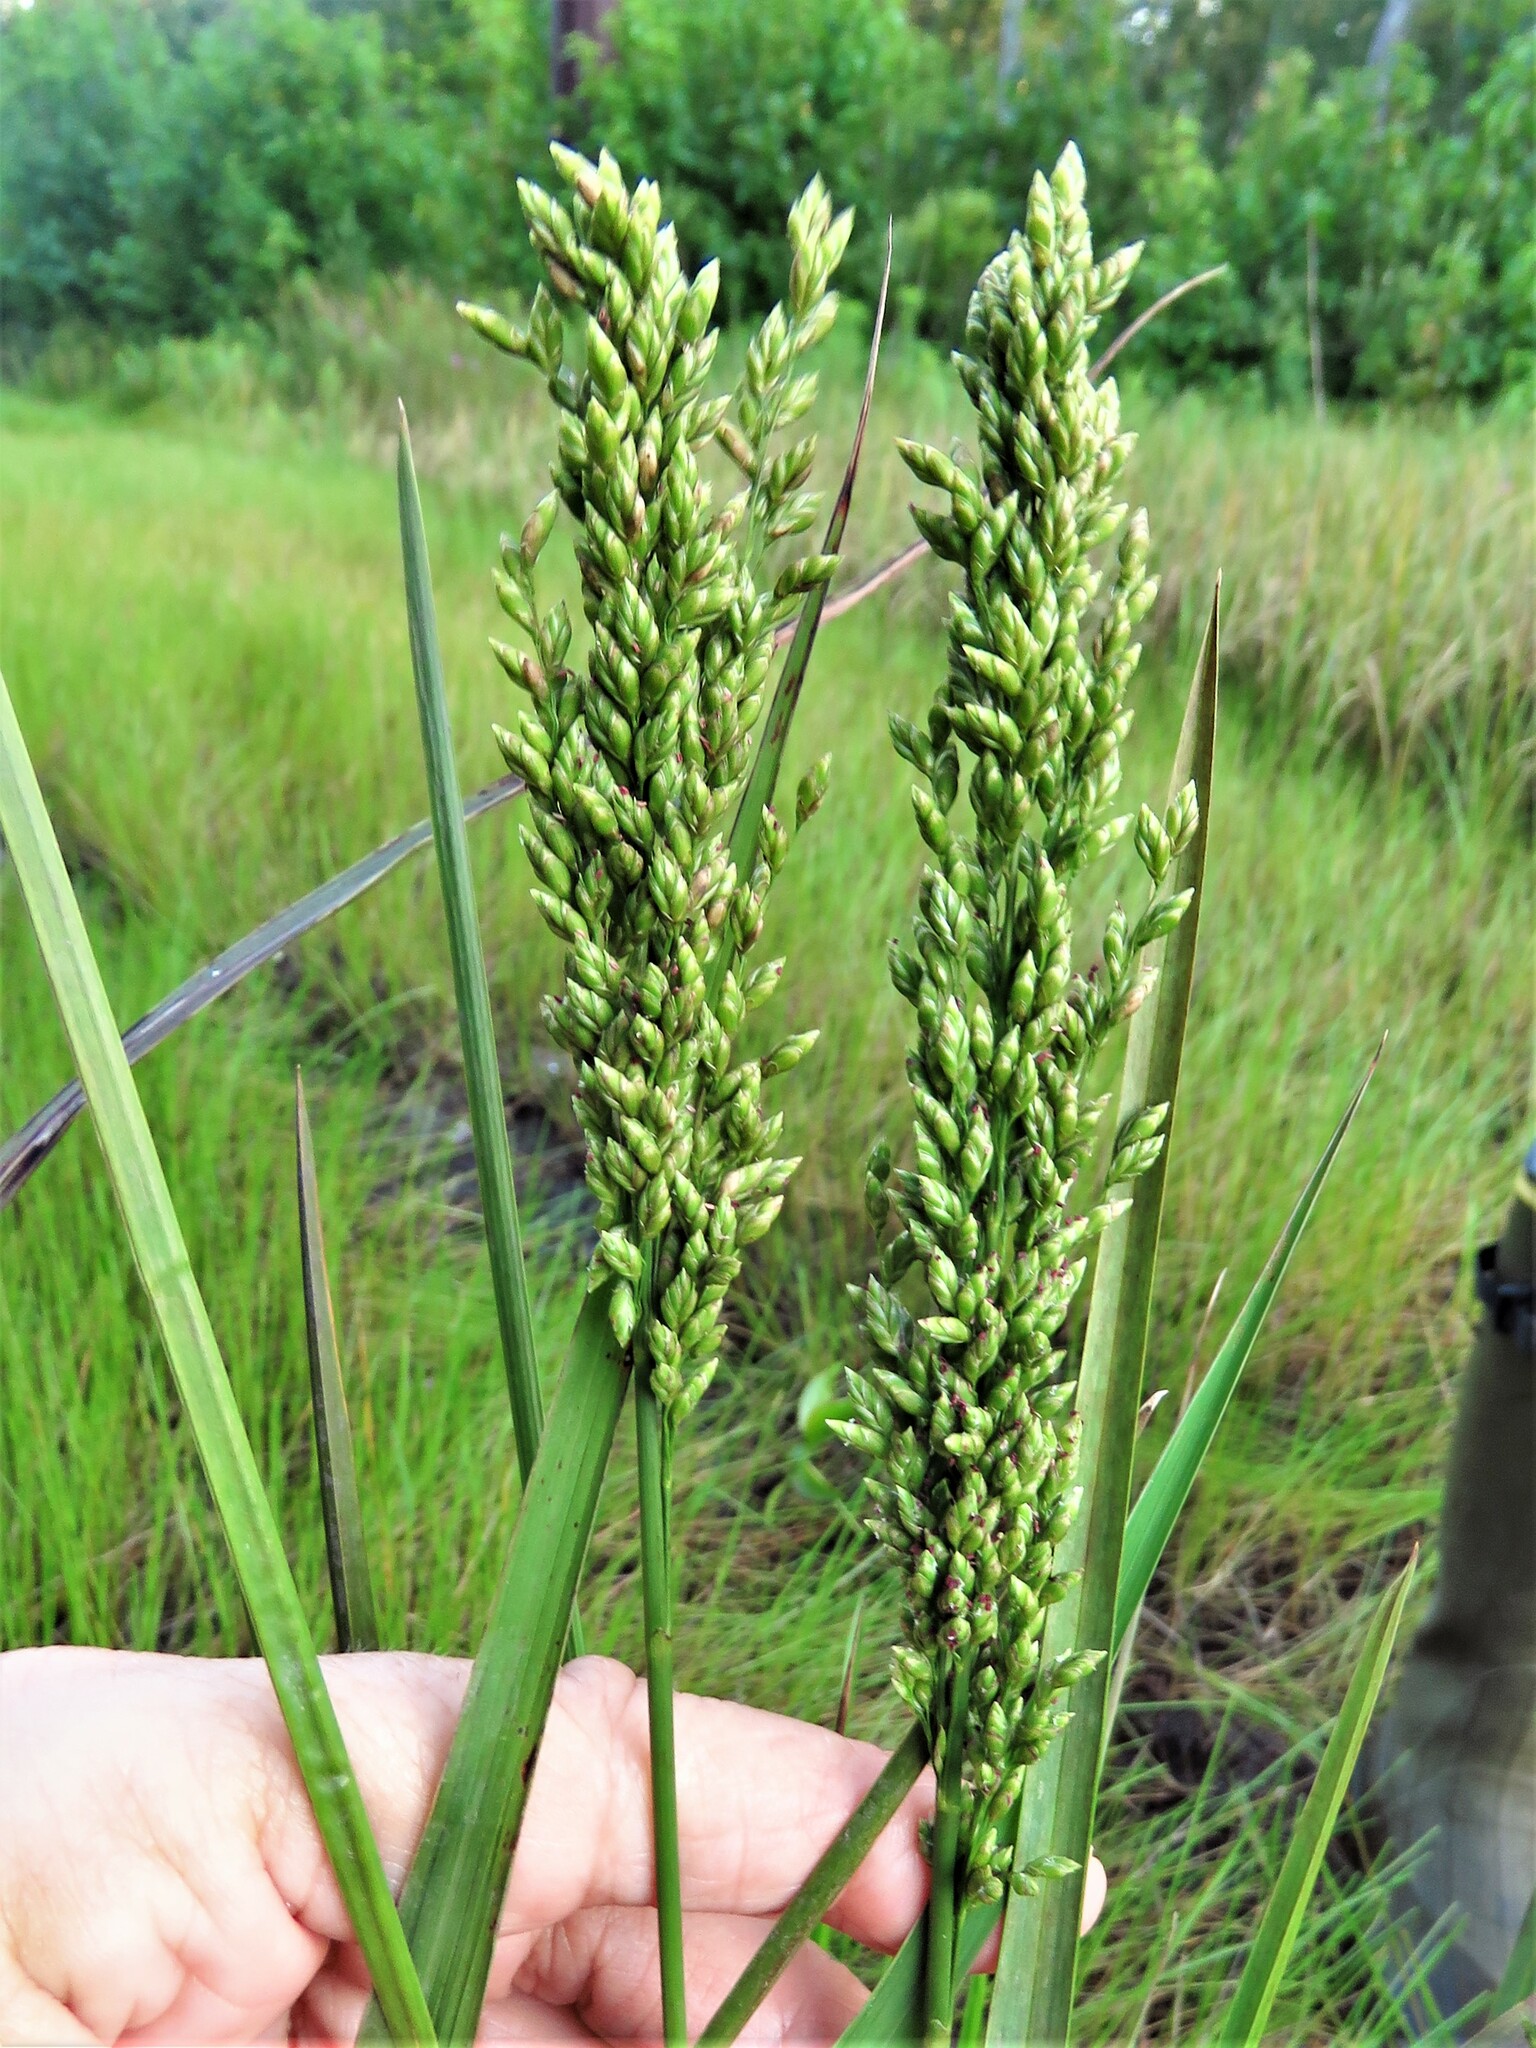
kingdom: Plantae
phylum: Tracheophyta
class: Liliopsida
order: Poales
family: Poaceae
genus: Glyceria
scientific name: Glyceria obtusa
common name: Atlantic mannagrass
